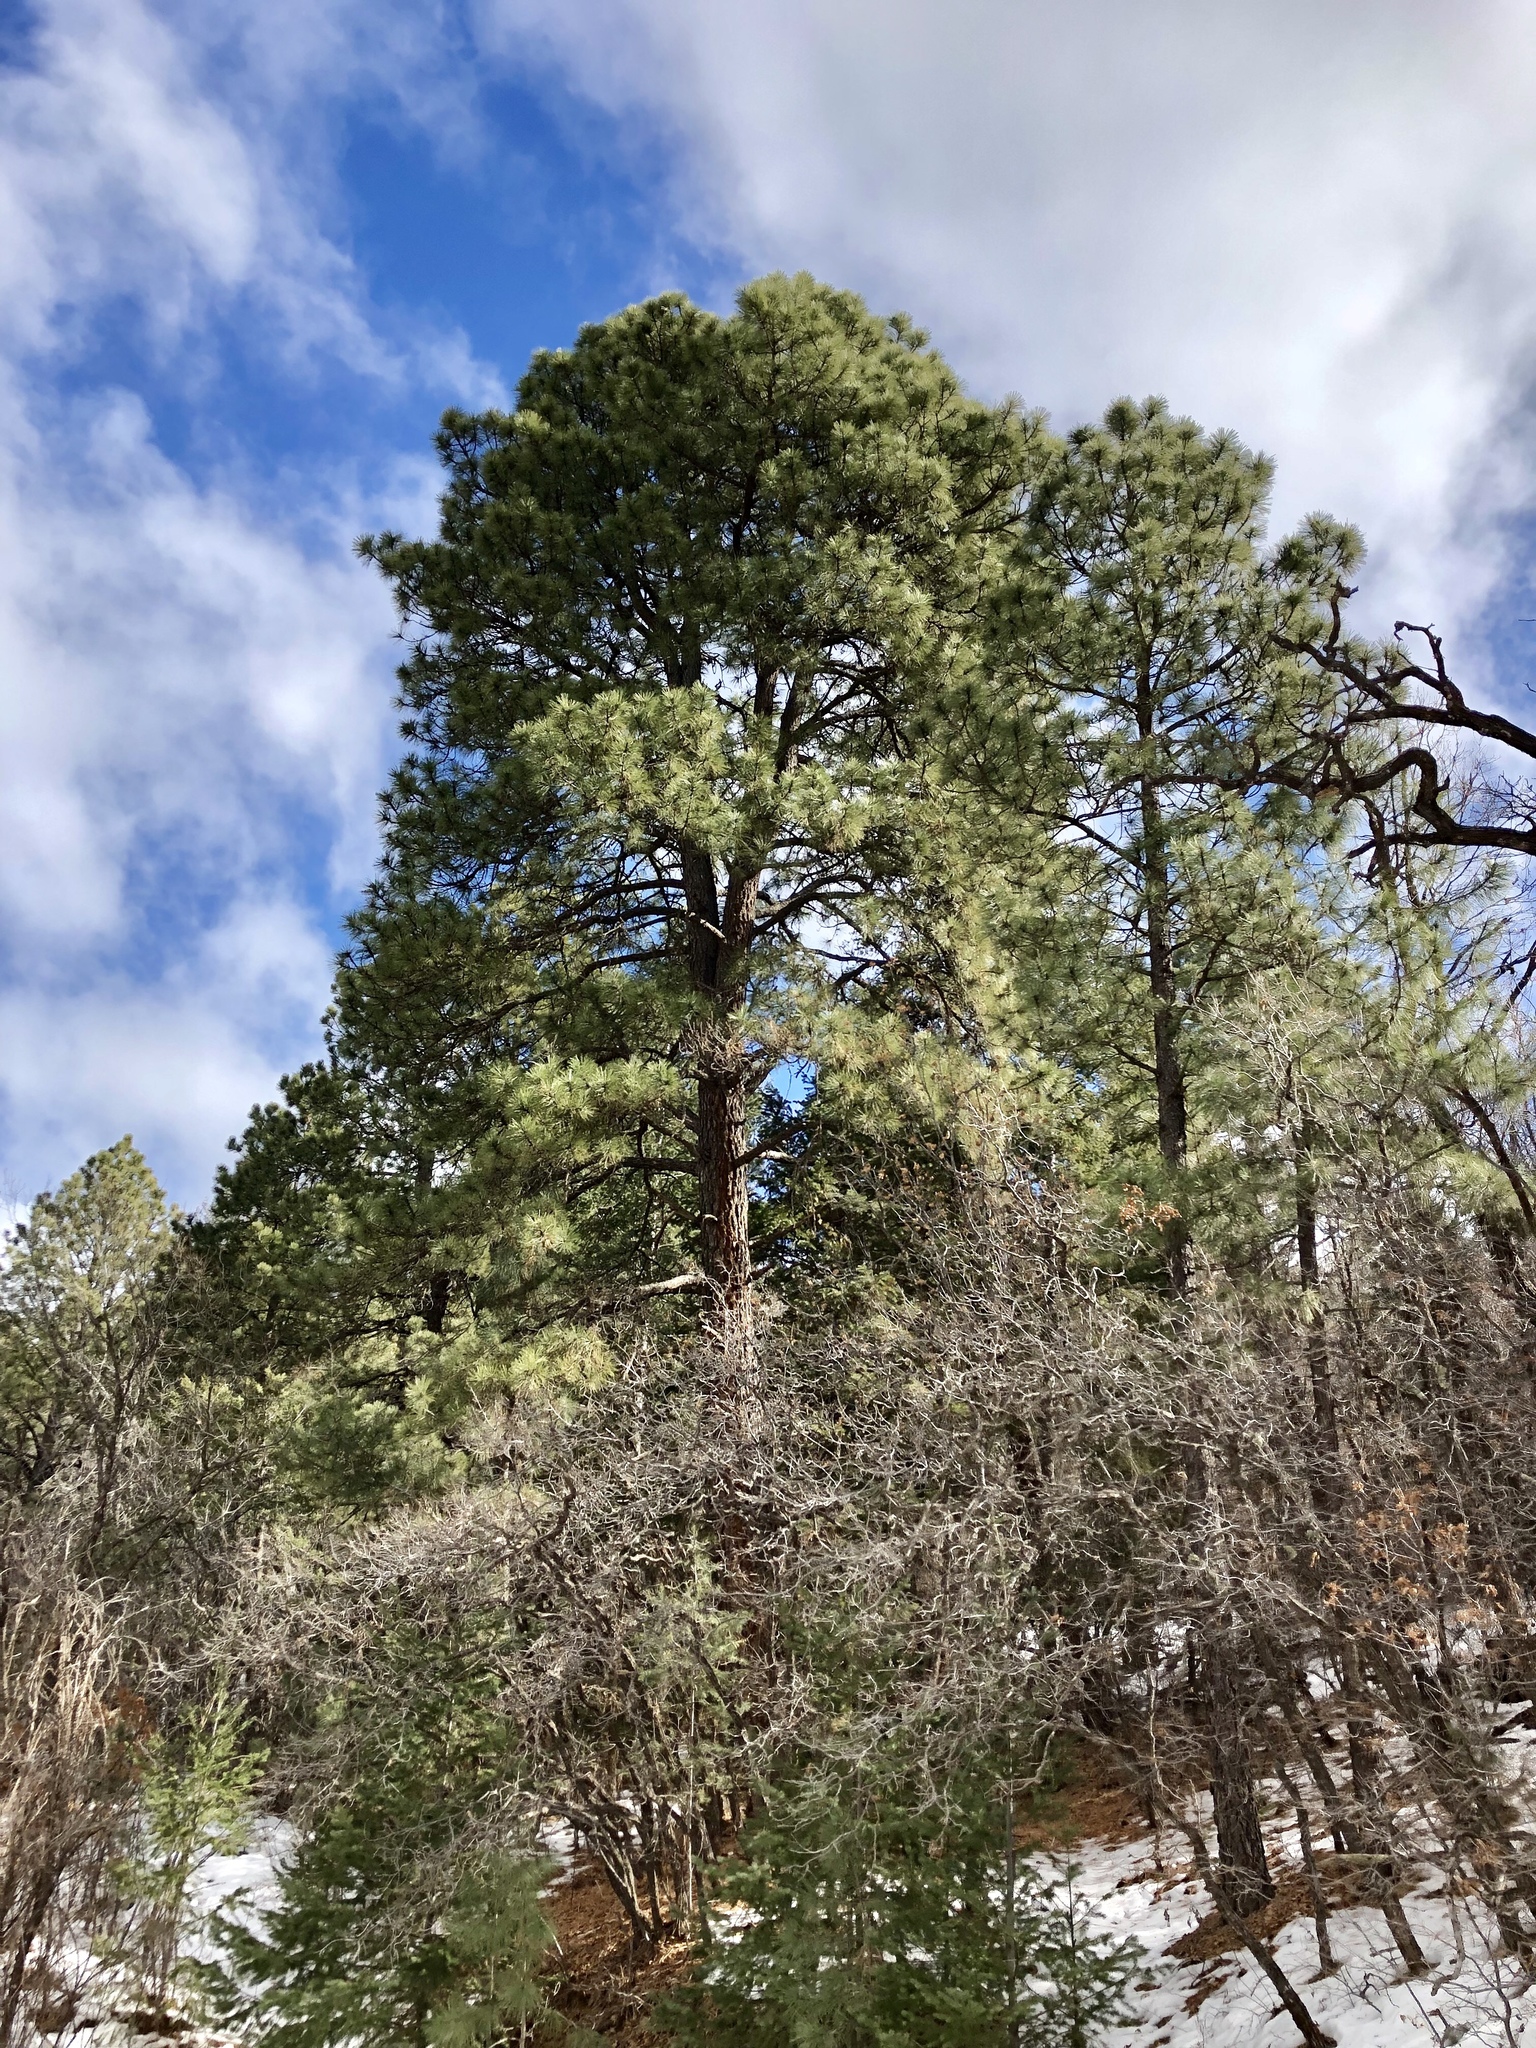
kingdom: Plantae
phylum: Tracheophyta
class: Pinopsida
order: Pinales
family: Pinaceae
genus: Pinus
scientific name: Pinus ponderosa
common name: Western yellow-pine
